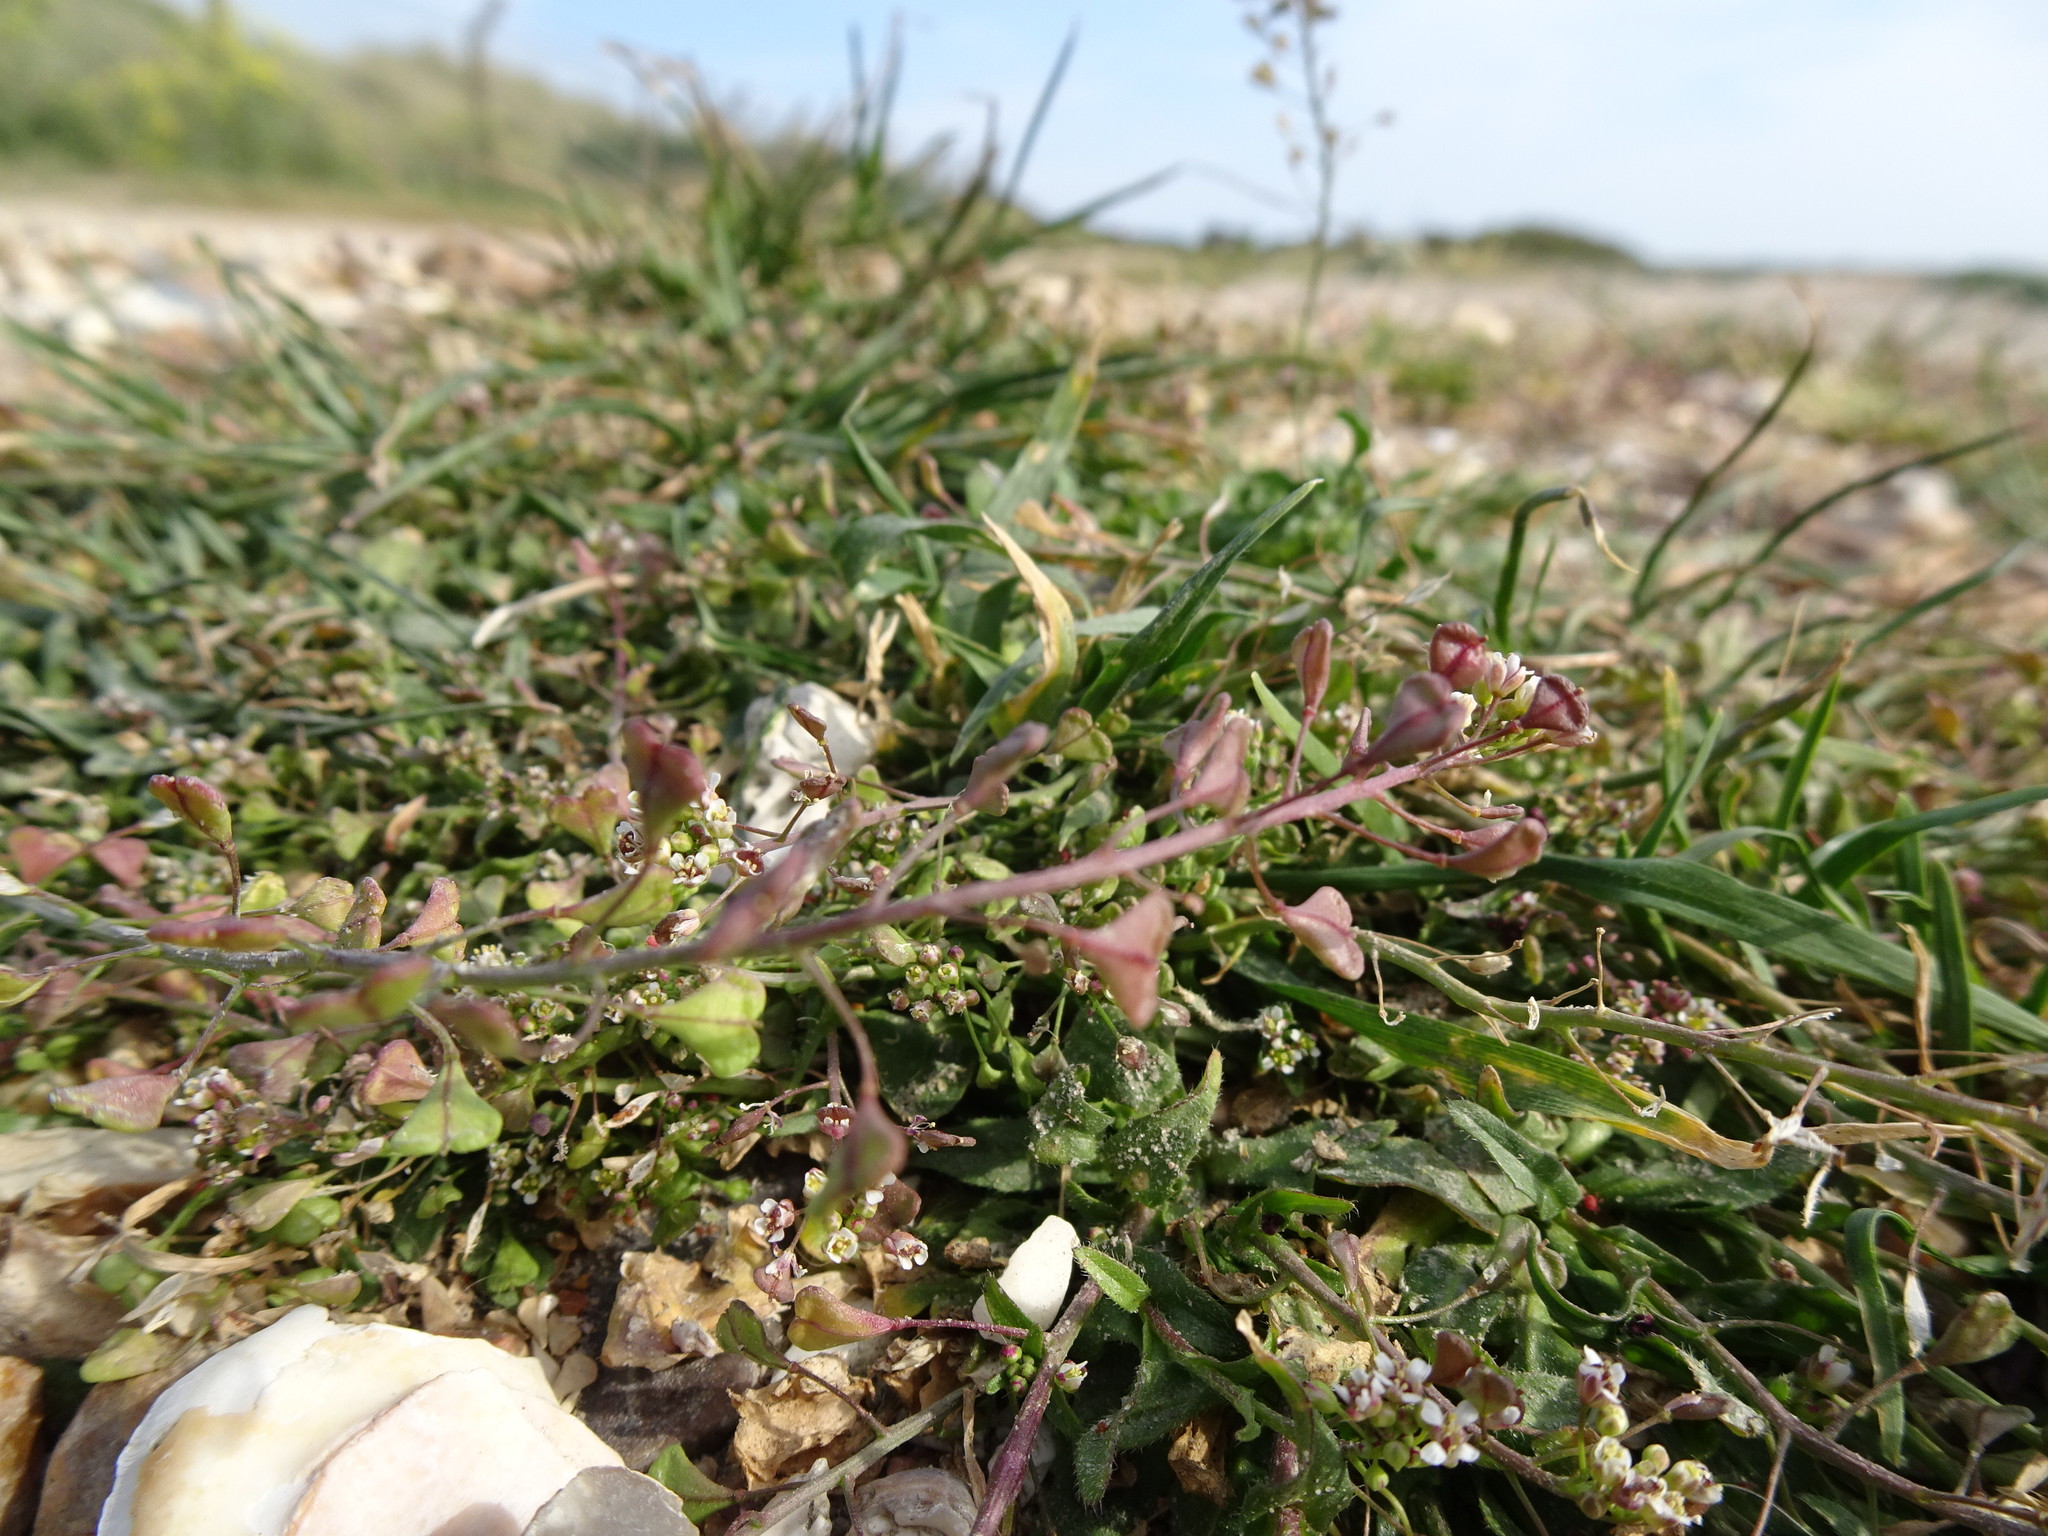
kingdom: Plantae
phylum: Tracheophyta
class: Magnoliopsida
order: Brassicales
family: Brassicaceae
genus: Capsella
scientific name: Capsella bursa-pastoris
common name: Shepherd's purse
